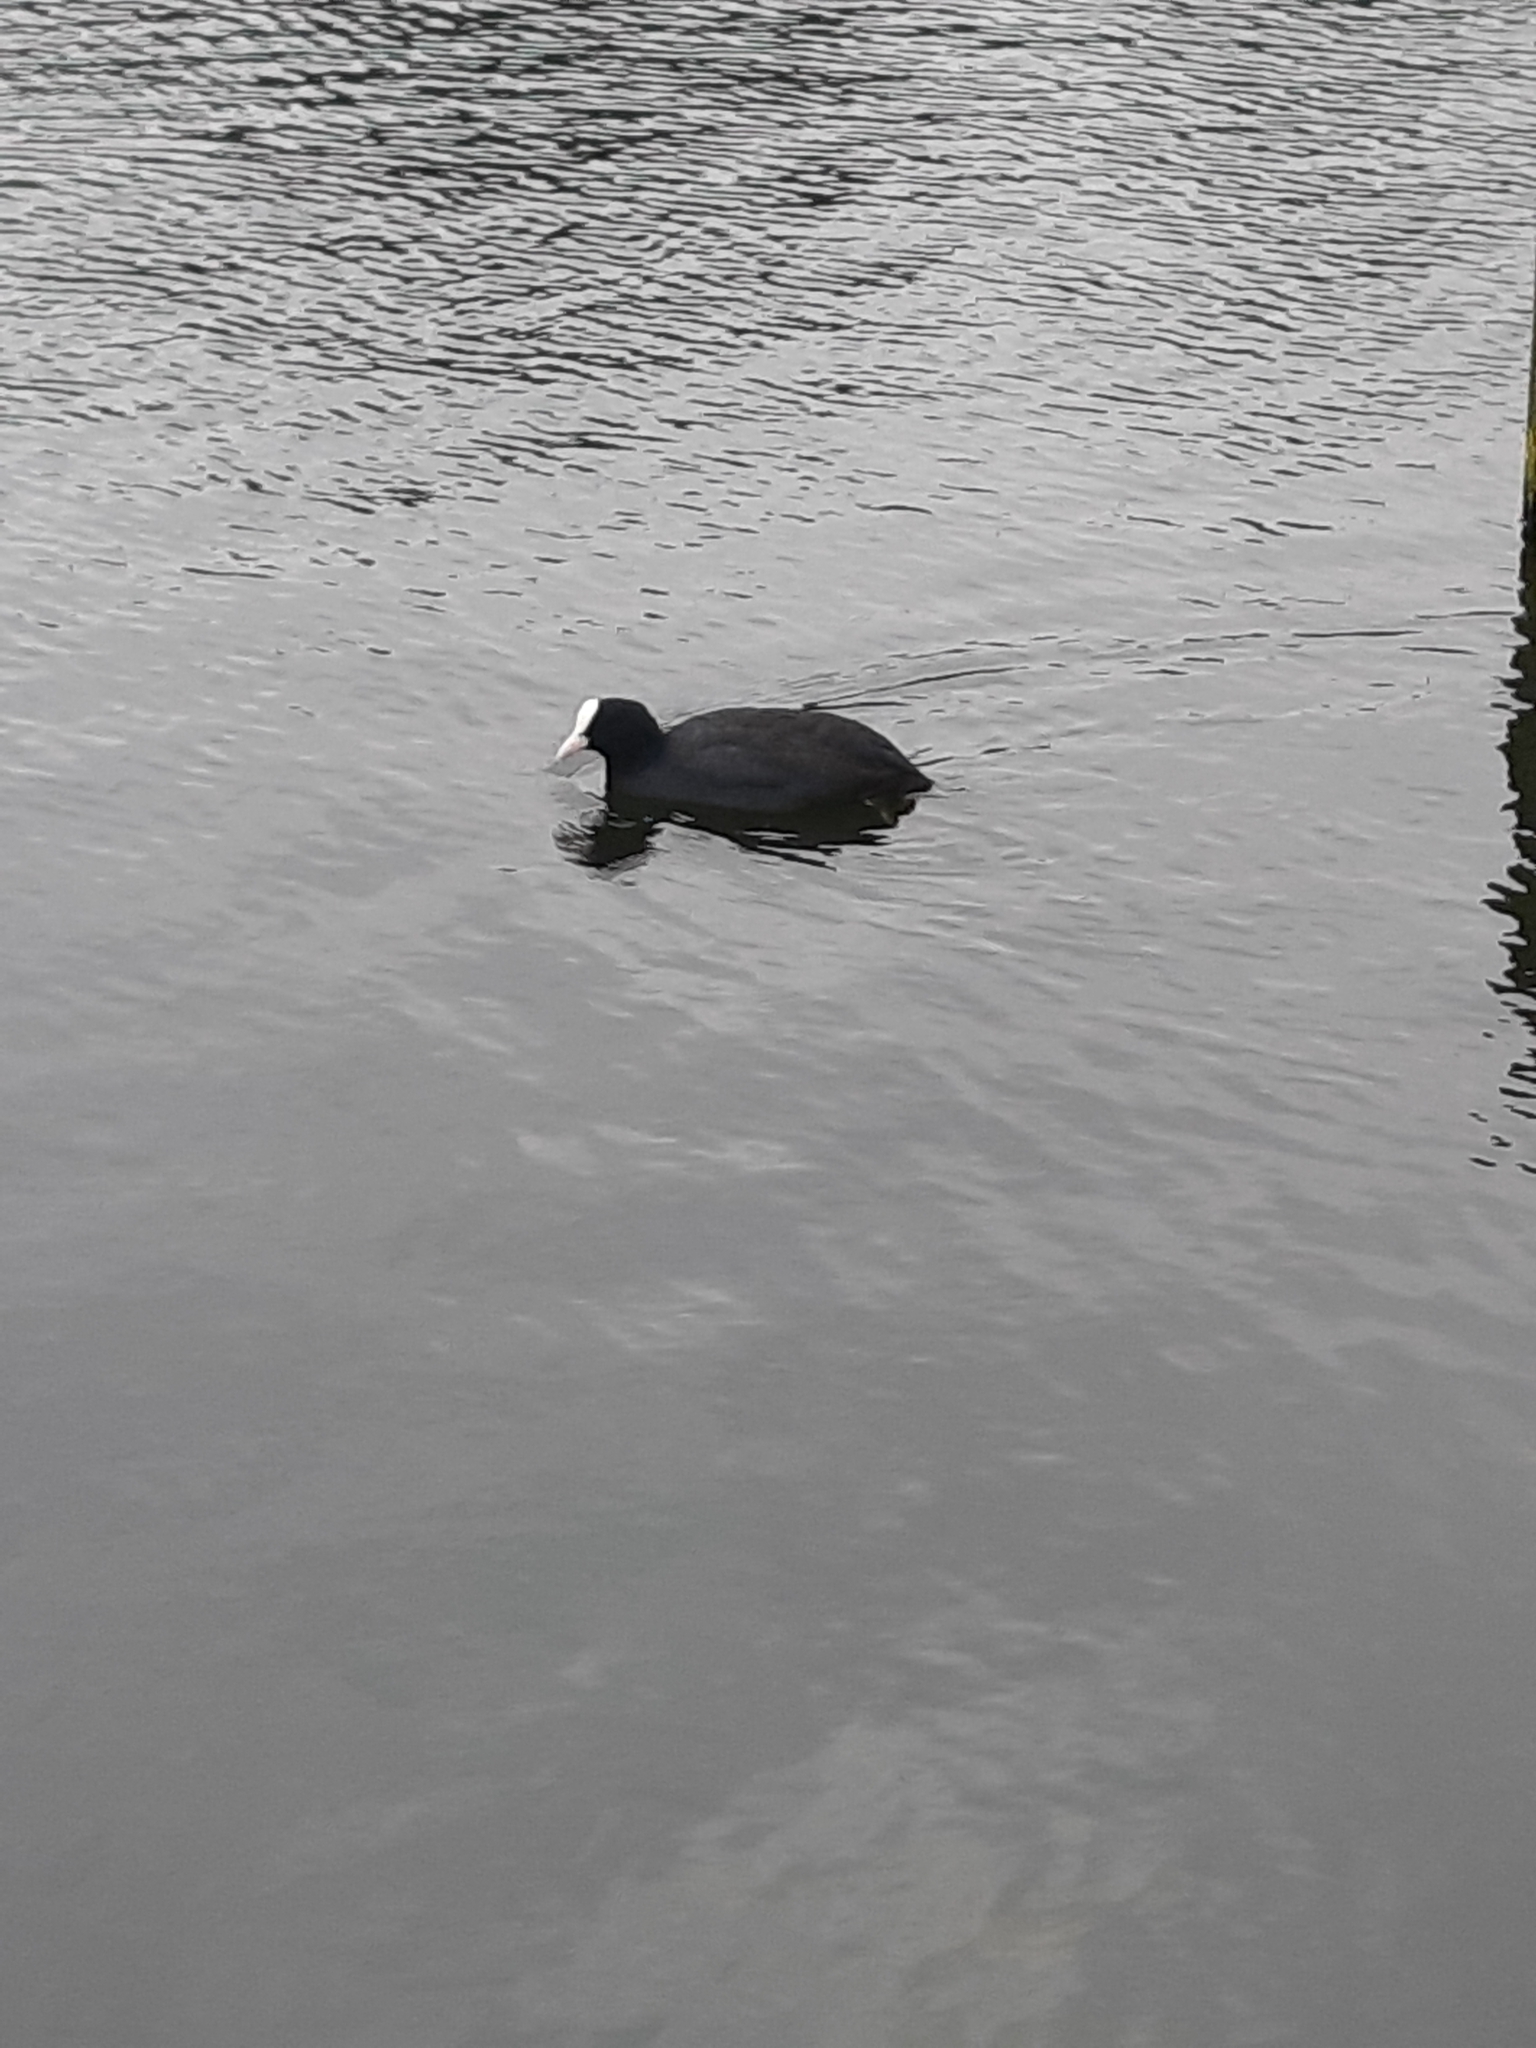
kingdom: Animalia
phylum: Chordata
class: Aves
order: Gruiformes
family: Rallidae
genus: Fulica
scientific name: Fulica atra
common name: Eurasian coot
